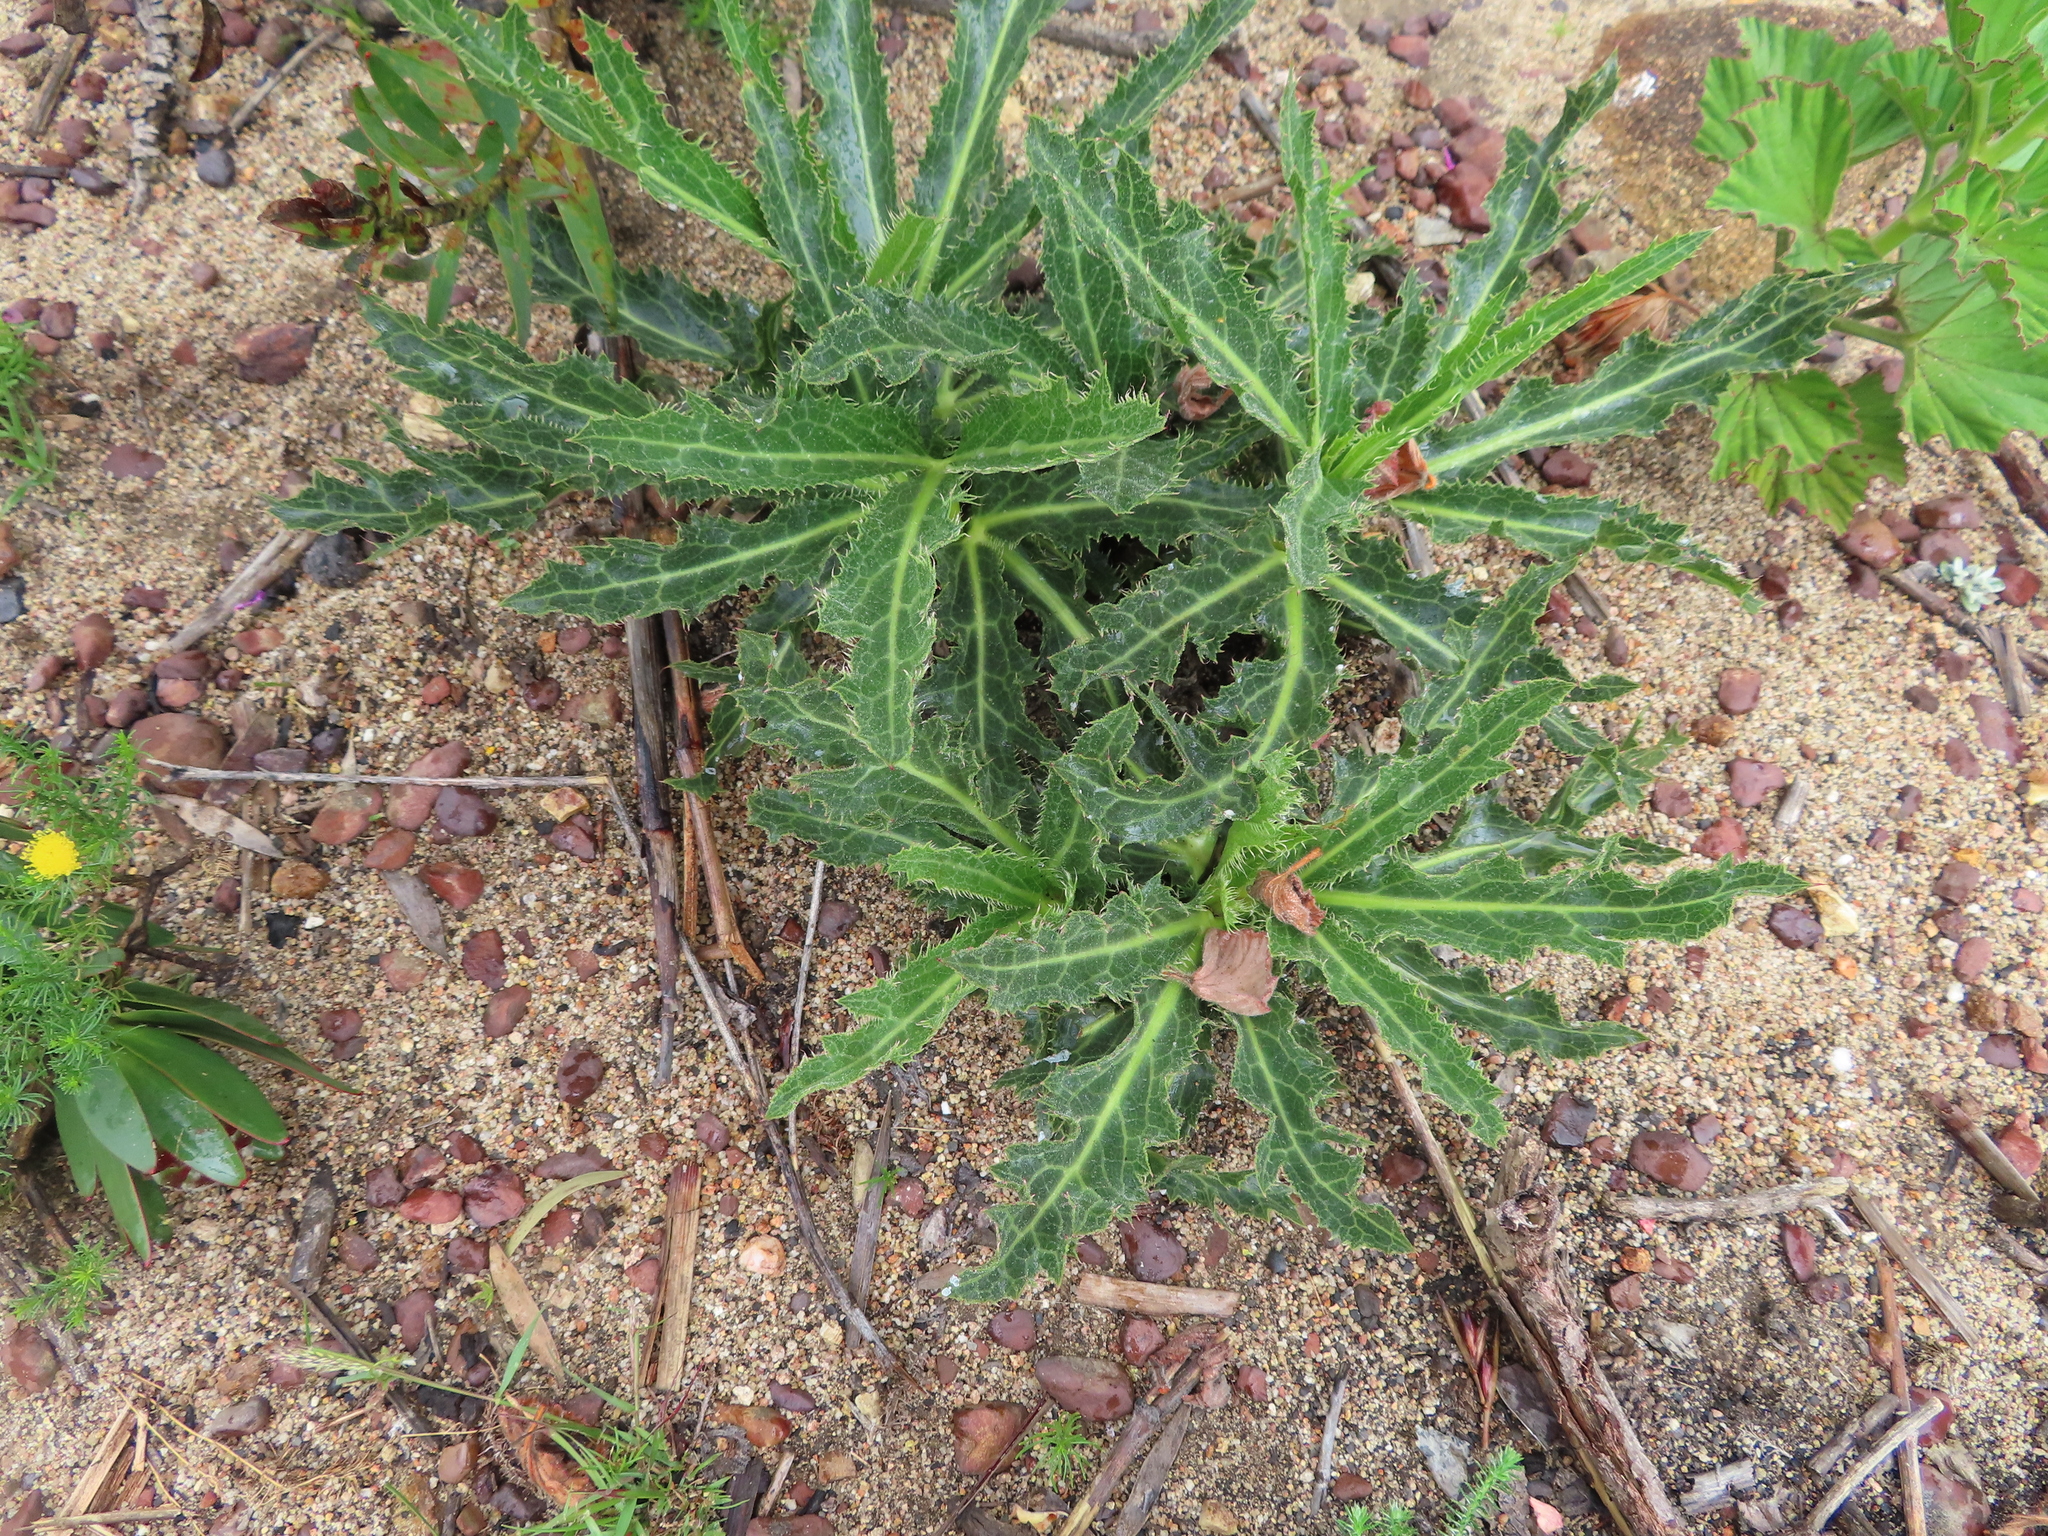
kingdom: Plantae
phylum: Tracheophyta
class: Magnoliopsida
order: Apiales
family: Apiaceae
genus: Lichtensteinia
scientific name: Lichtensteinia lacera
